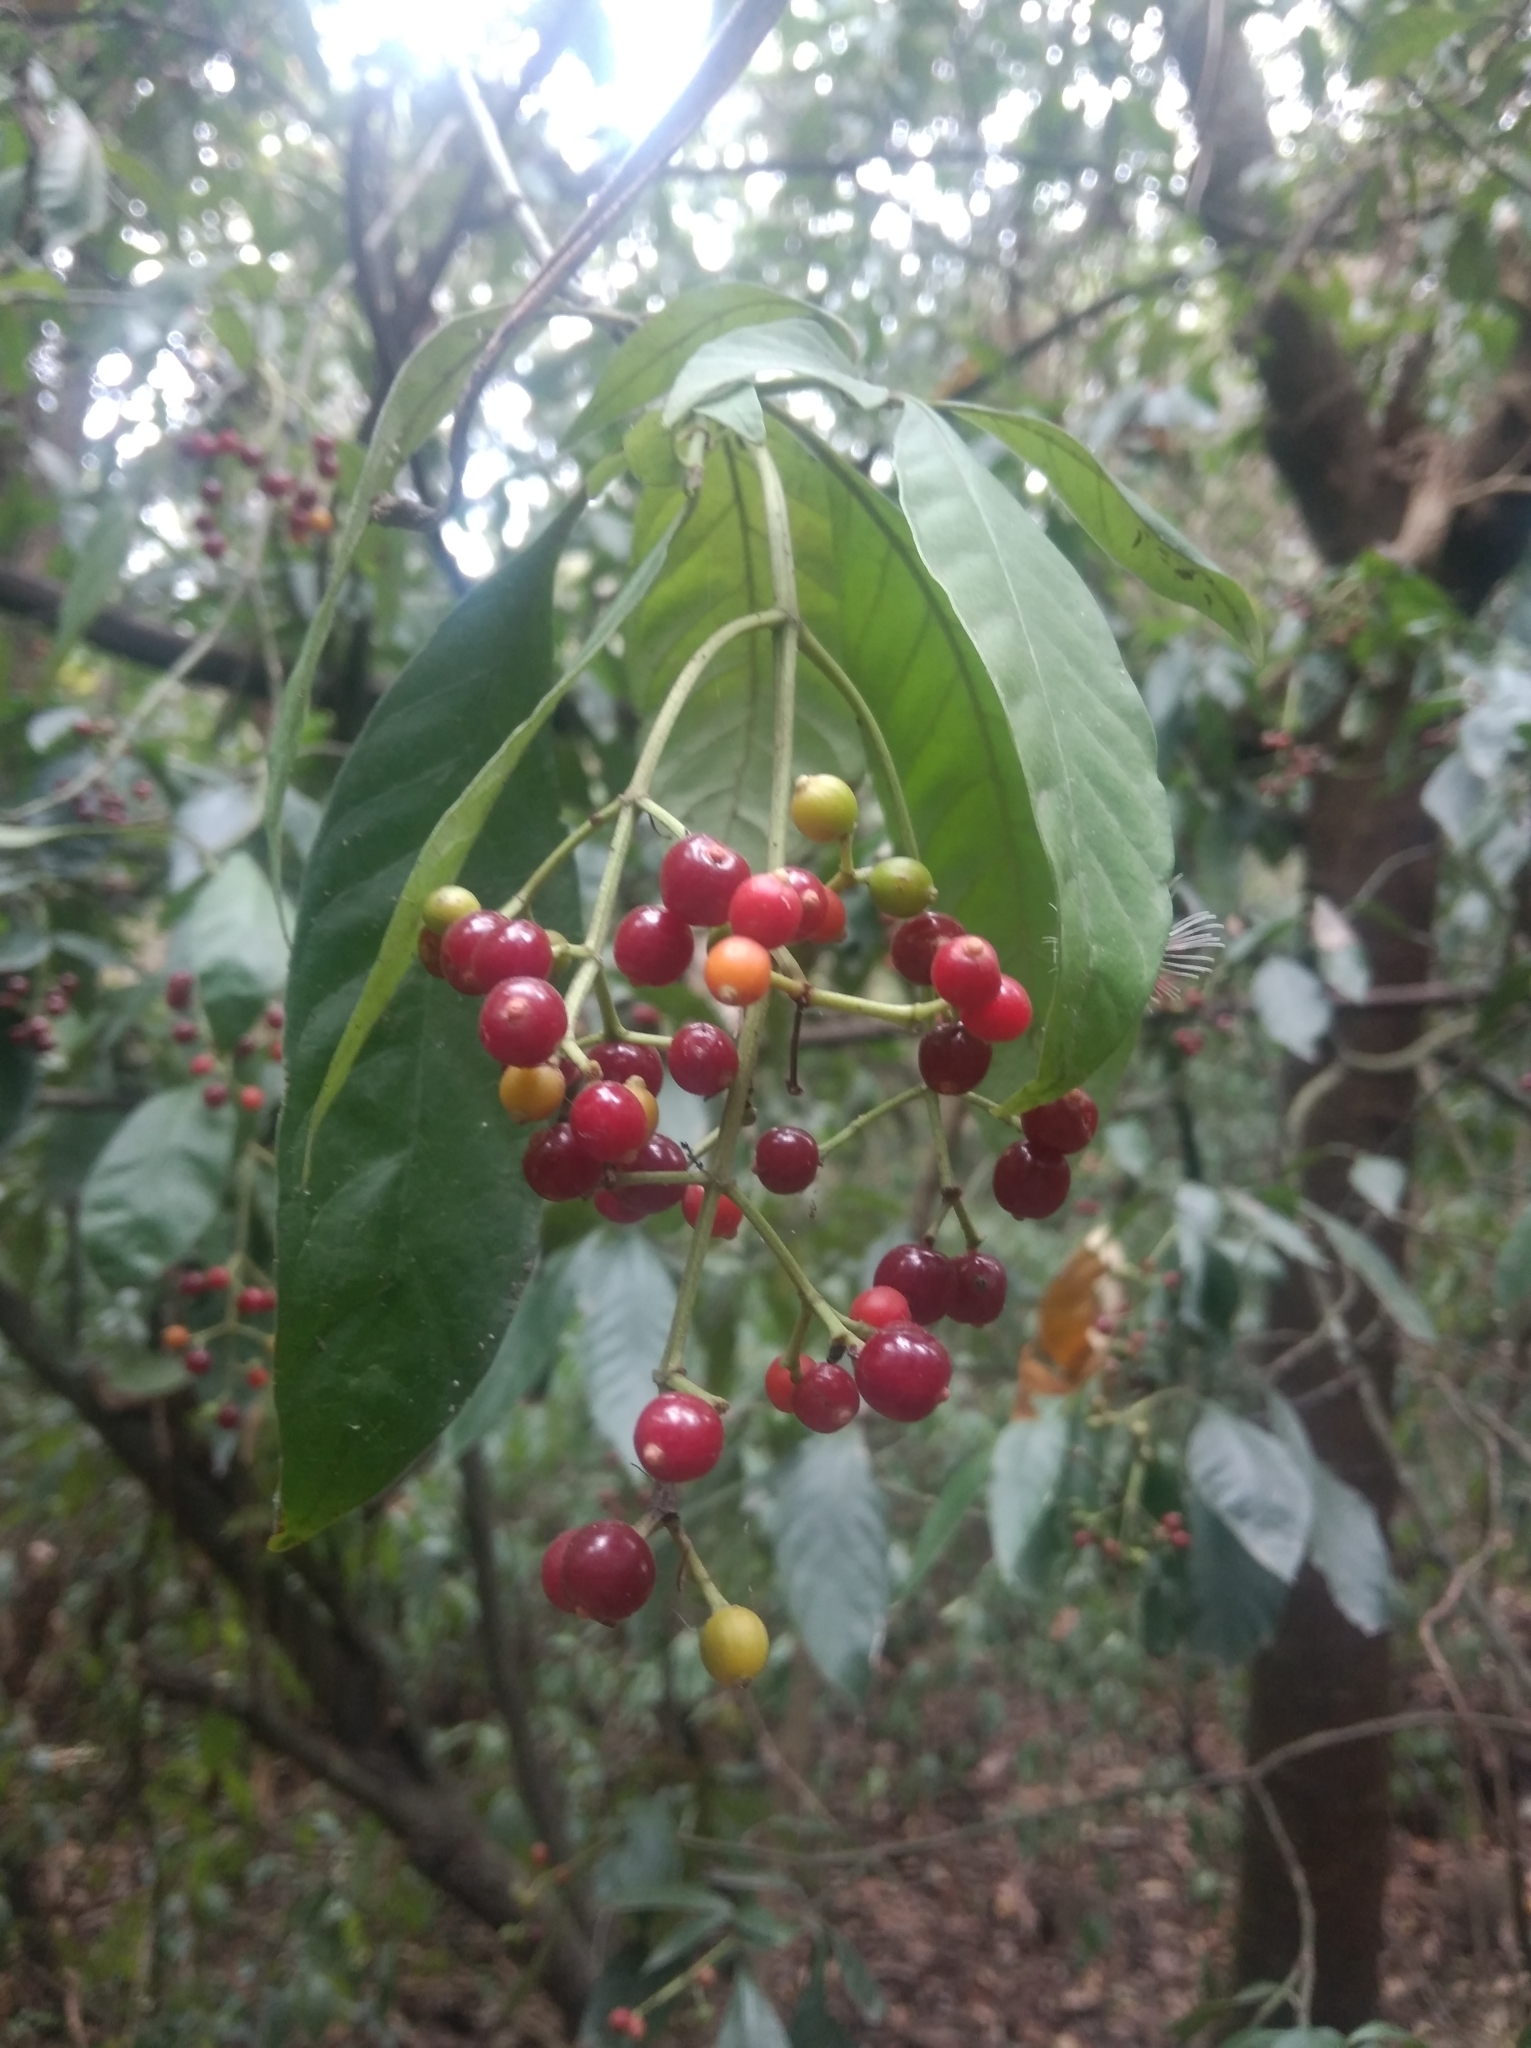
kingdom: Plantae
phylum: Tracheophyta
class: Magnoliopsida
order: Gentianales
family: Rubiaceae
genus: Psychotria
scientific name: Psychotria carthagenensis
